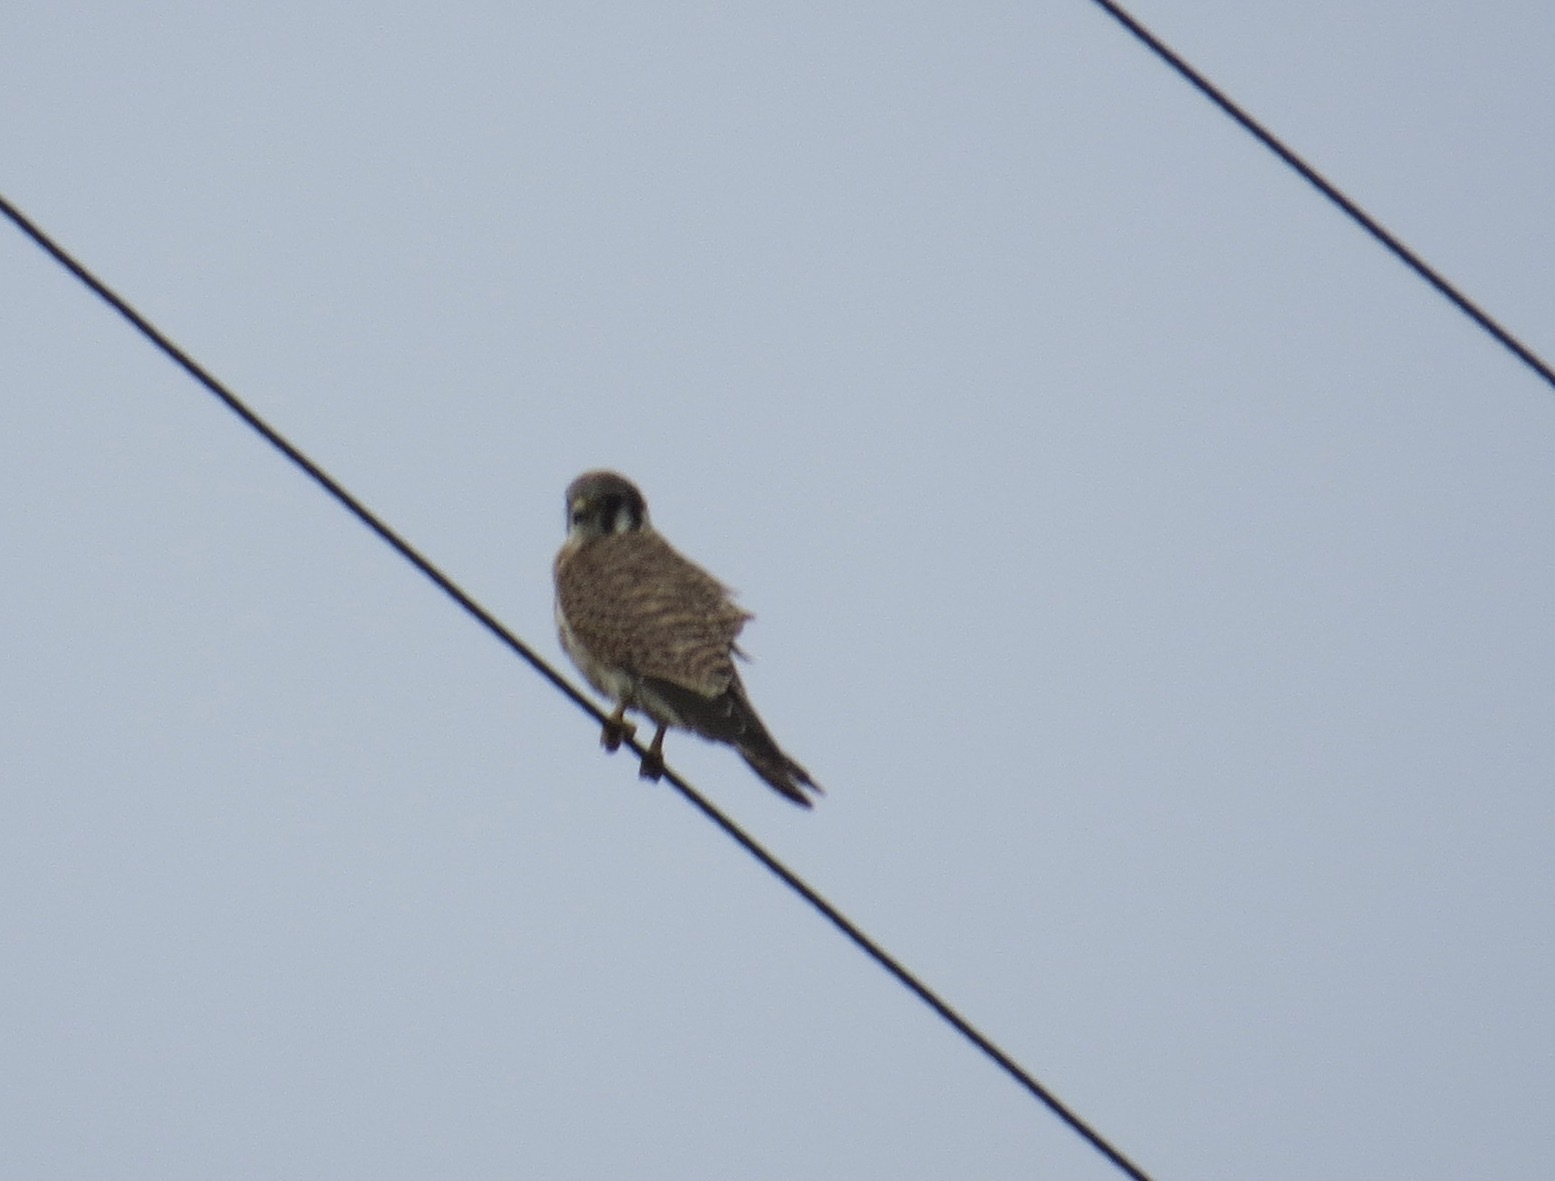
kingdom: Animalia
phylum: Chordata
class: Aves
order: Falconiformes
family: Falconidae
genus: Falco
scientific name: Falco sparverius
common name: American kestrel
